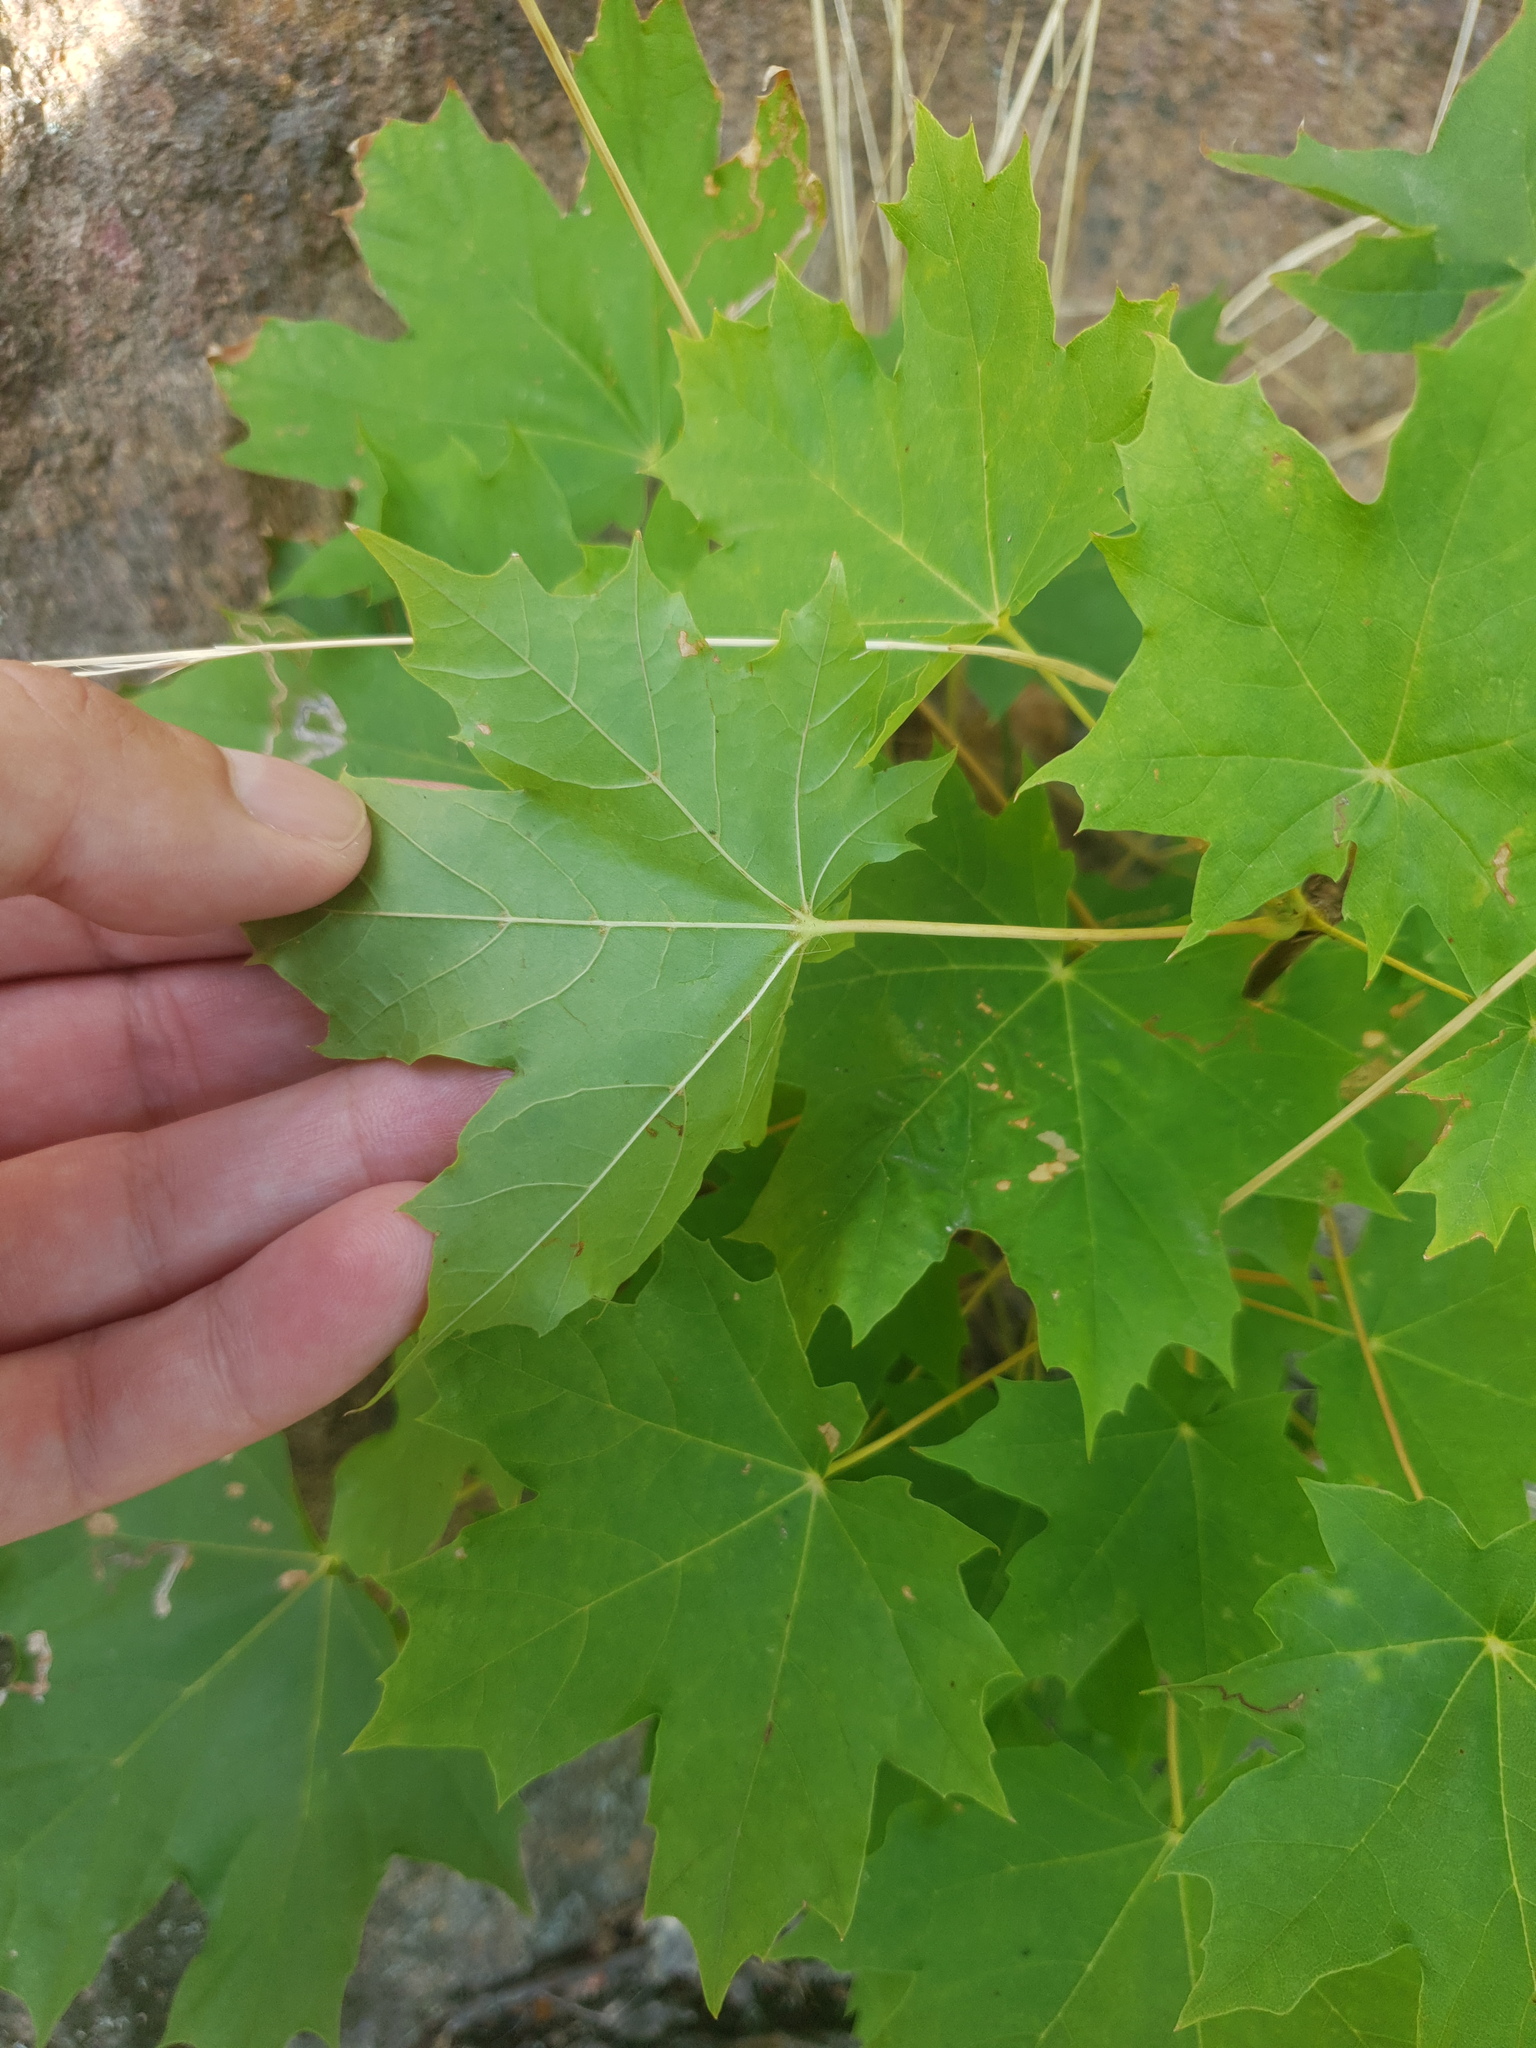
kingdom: Plantae
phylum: Tracheophyta
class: Magnoliopsida
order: Sapindales
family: Sapindaceae
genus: Acer
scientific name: Acer platanoides
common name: Norway maple
